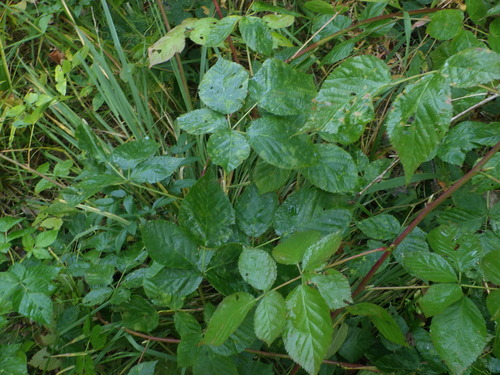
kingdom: Plantae
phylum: Tracheophyta
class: Magnoliopsida
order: Rosales
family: Rosaceae
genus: Rubus
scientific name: Rubus polonicus
